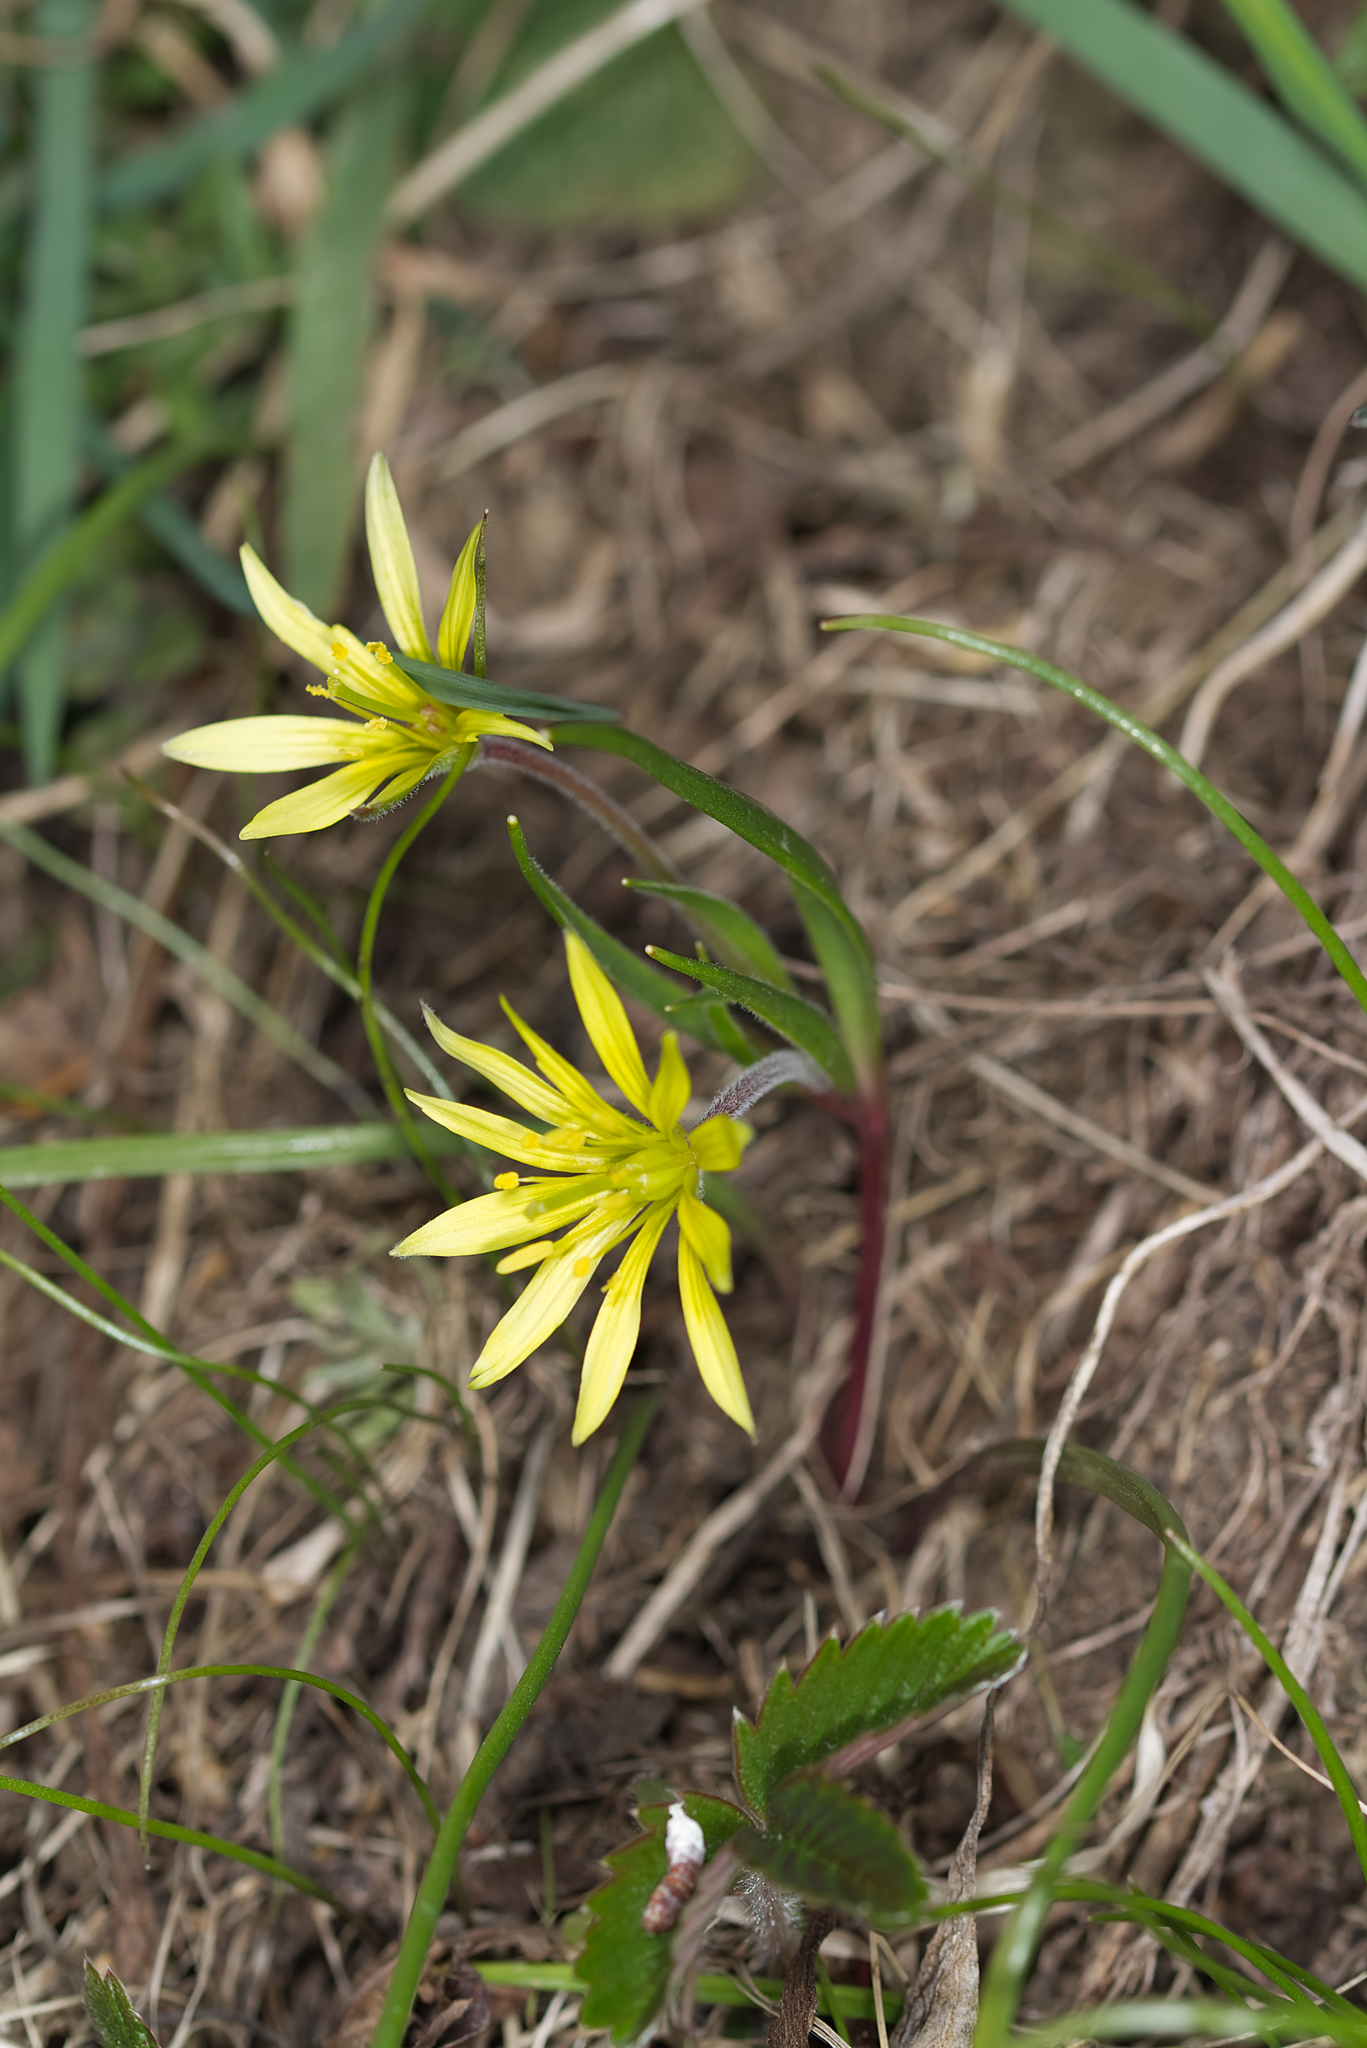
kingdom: Plantae
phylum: Tracheophyta
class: Liliopsida
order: Liliales
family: Liliaceae
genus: Gagea
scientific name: Gagea villosa
